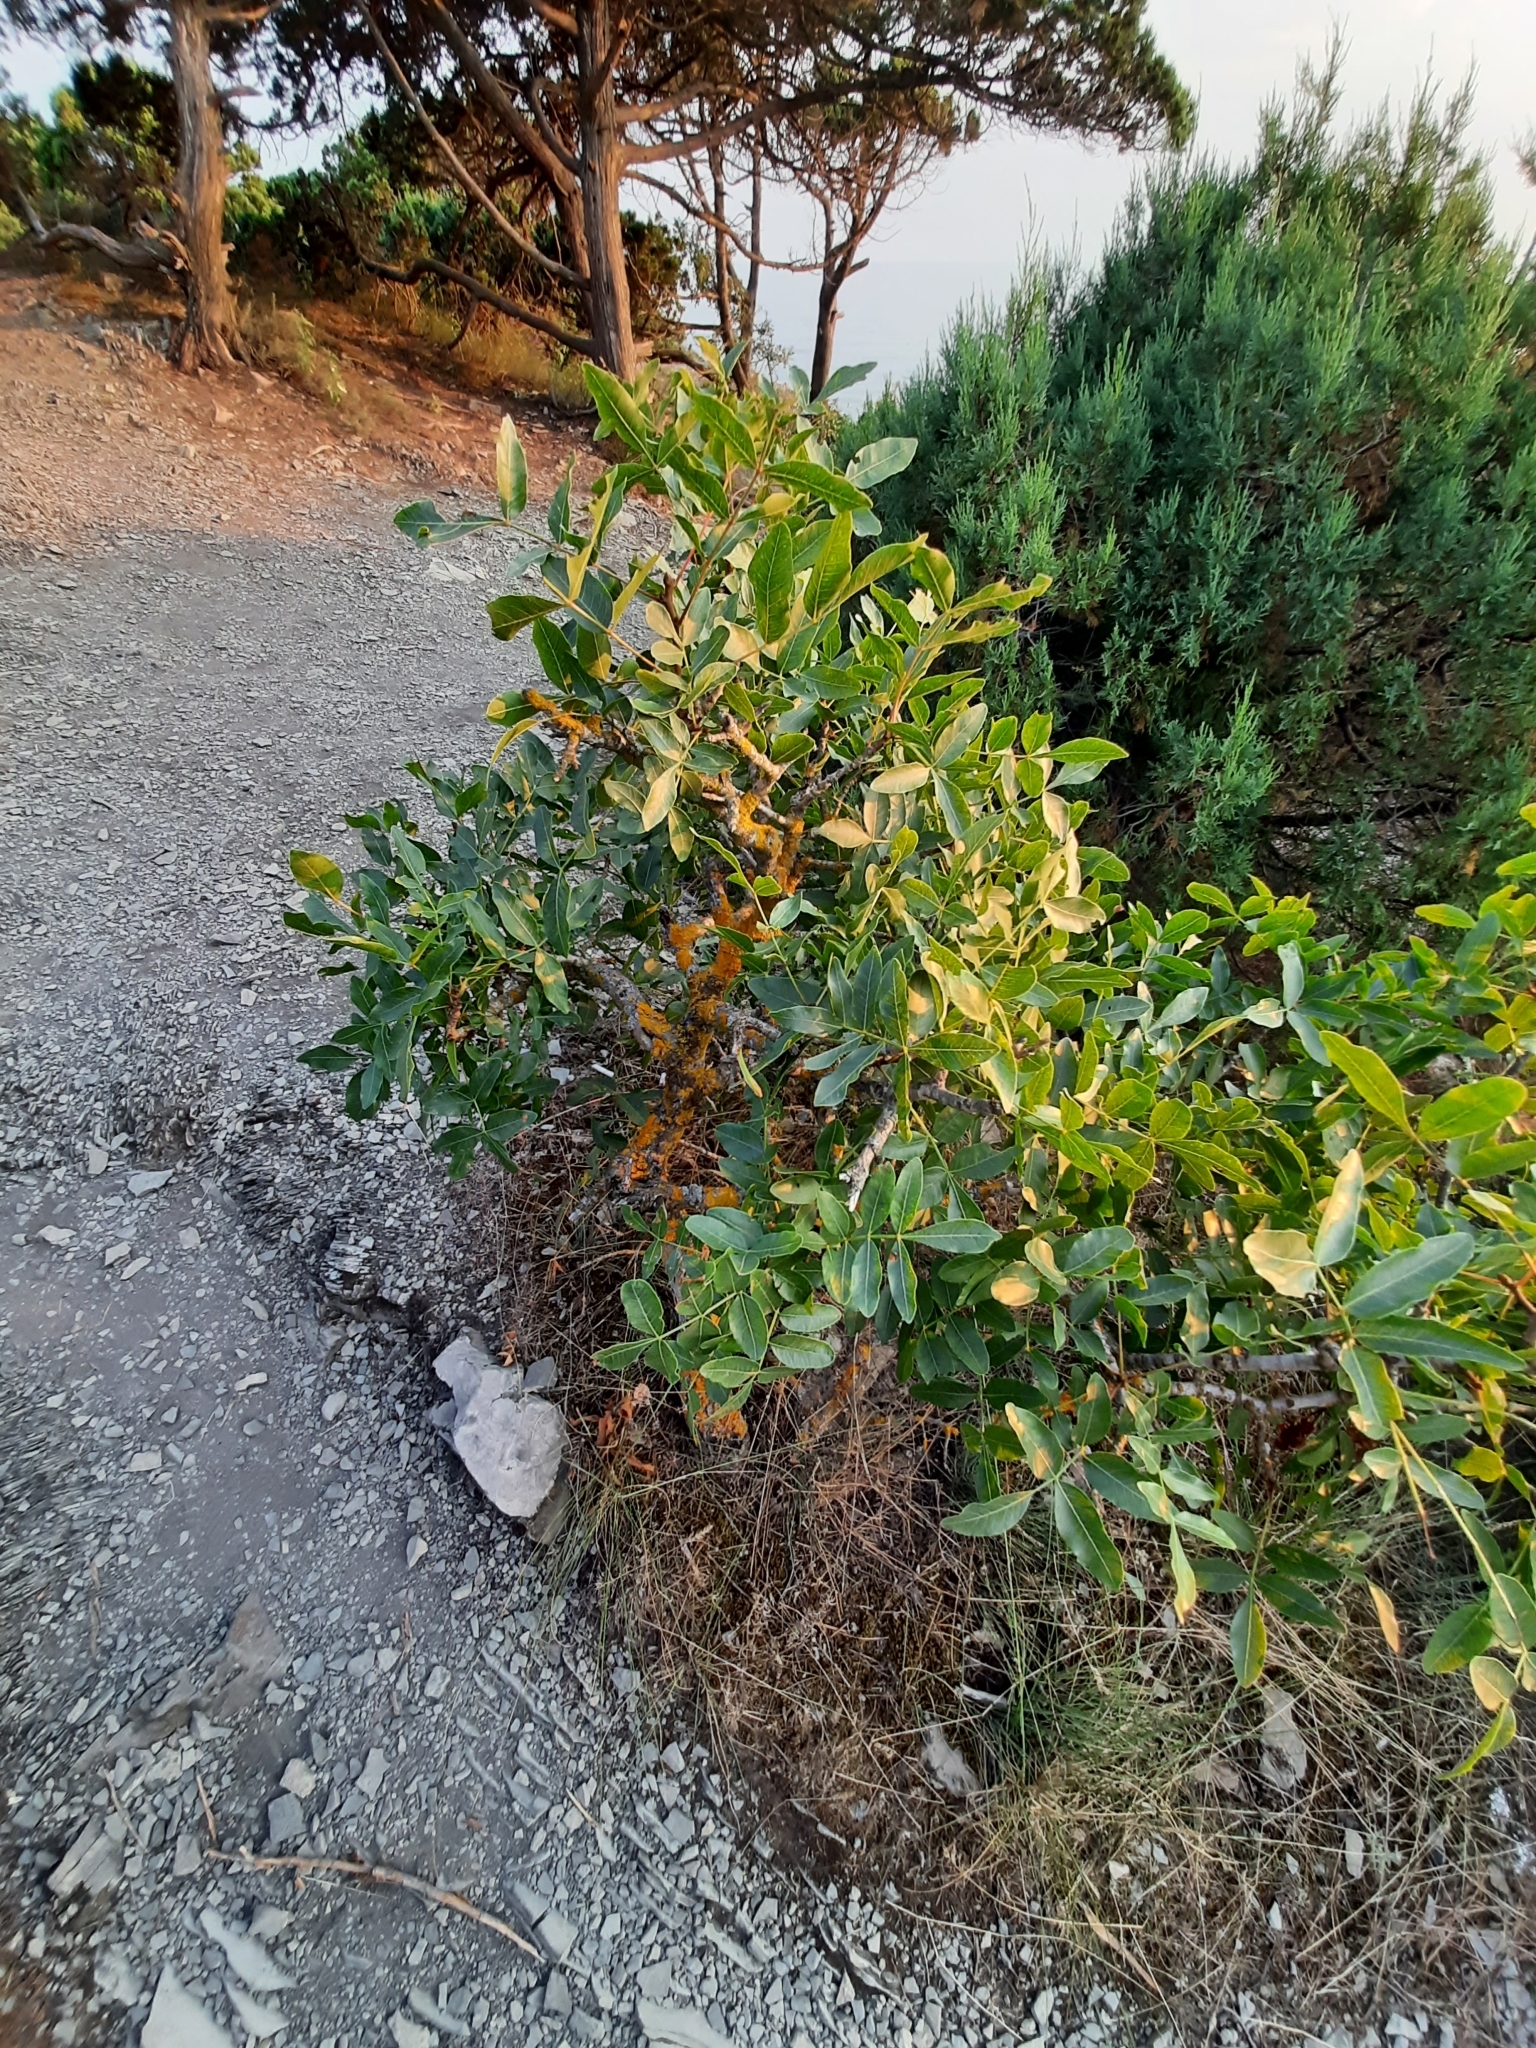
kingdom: Plantae
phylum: Tracheophyta
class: Magnoliopsida
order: Sapindales
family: Anacardiaceae
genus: Pistacia
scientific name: Pistacia atlantica
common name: Mt. atlas mastic tree
